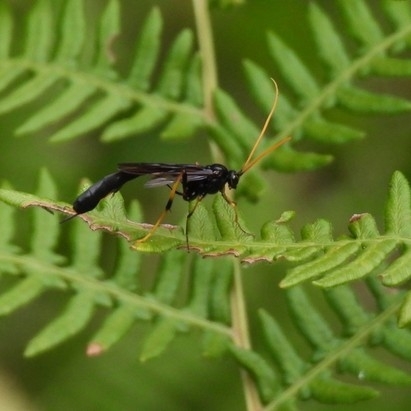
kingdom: Animalia
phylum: Arthropoda
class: Insecta
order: Hymenoptera
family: Ichneumonidae
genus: Therion
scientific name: Therion morio
